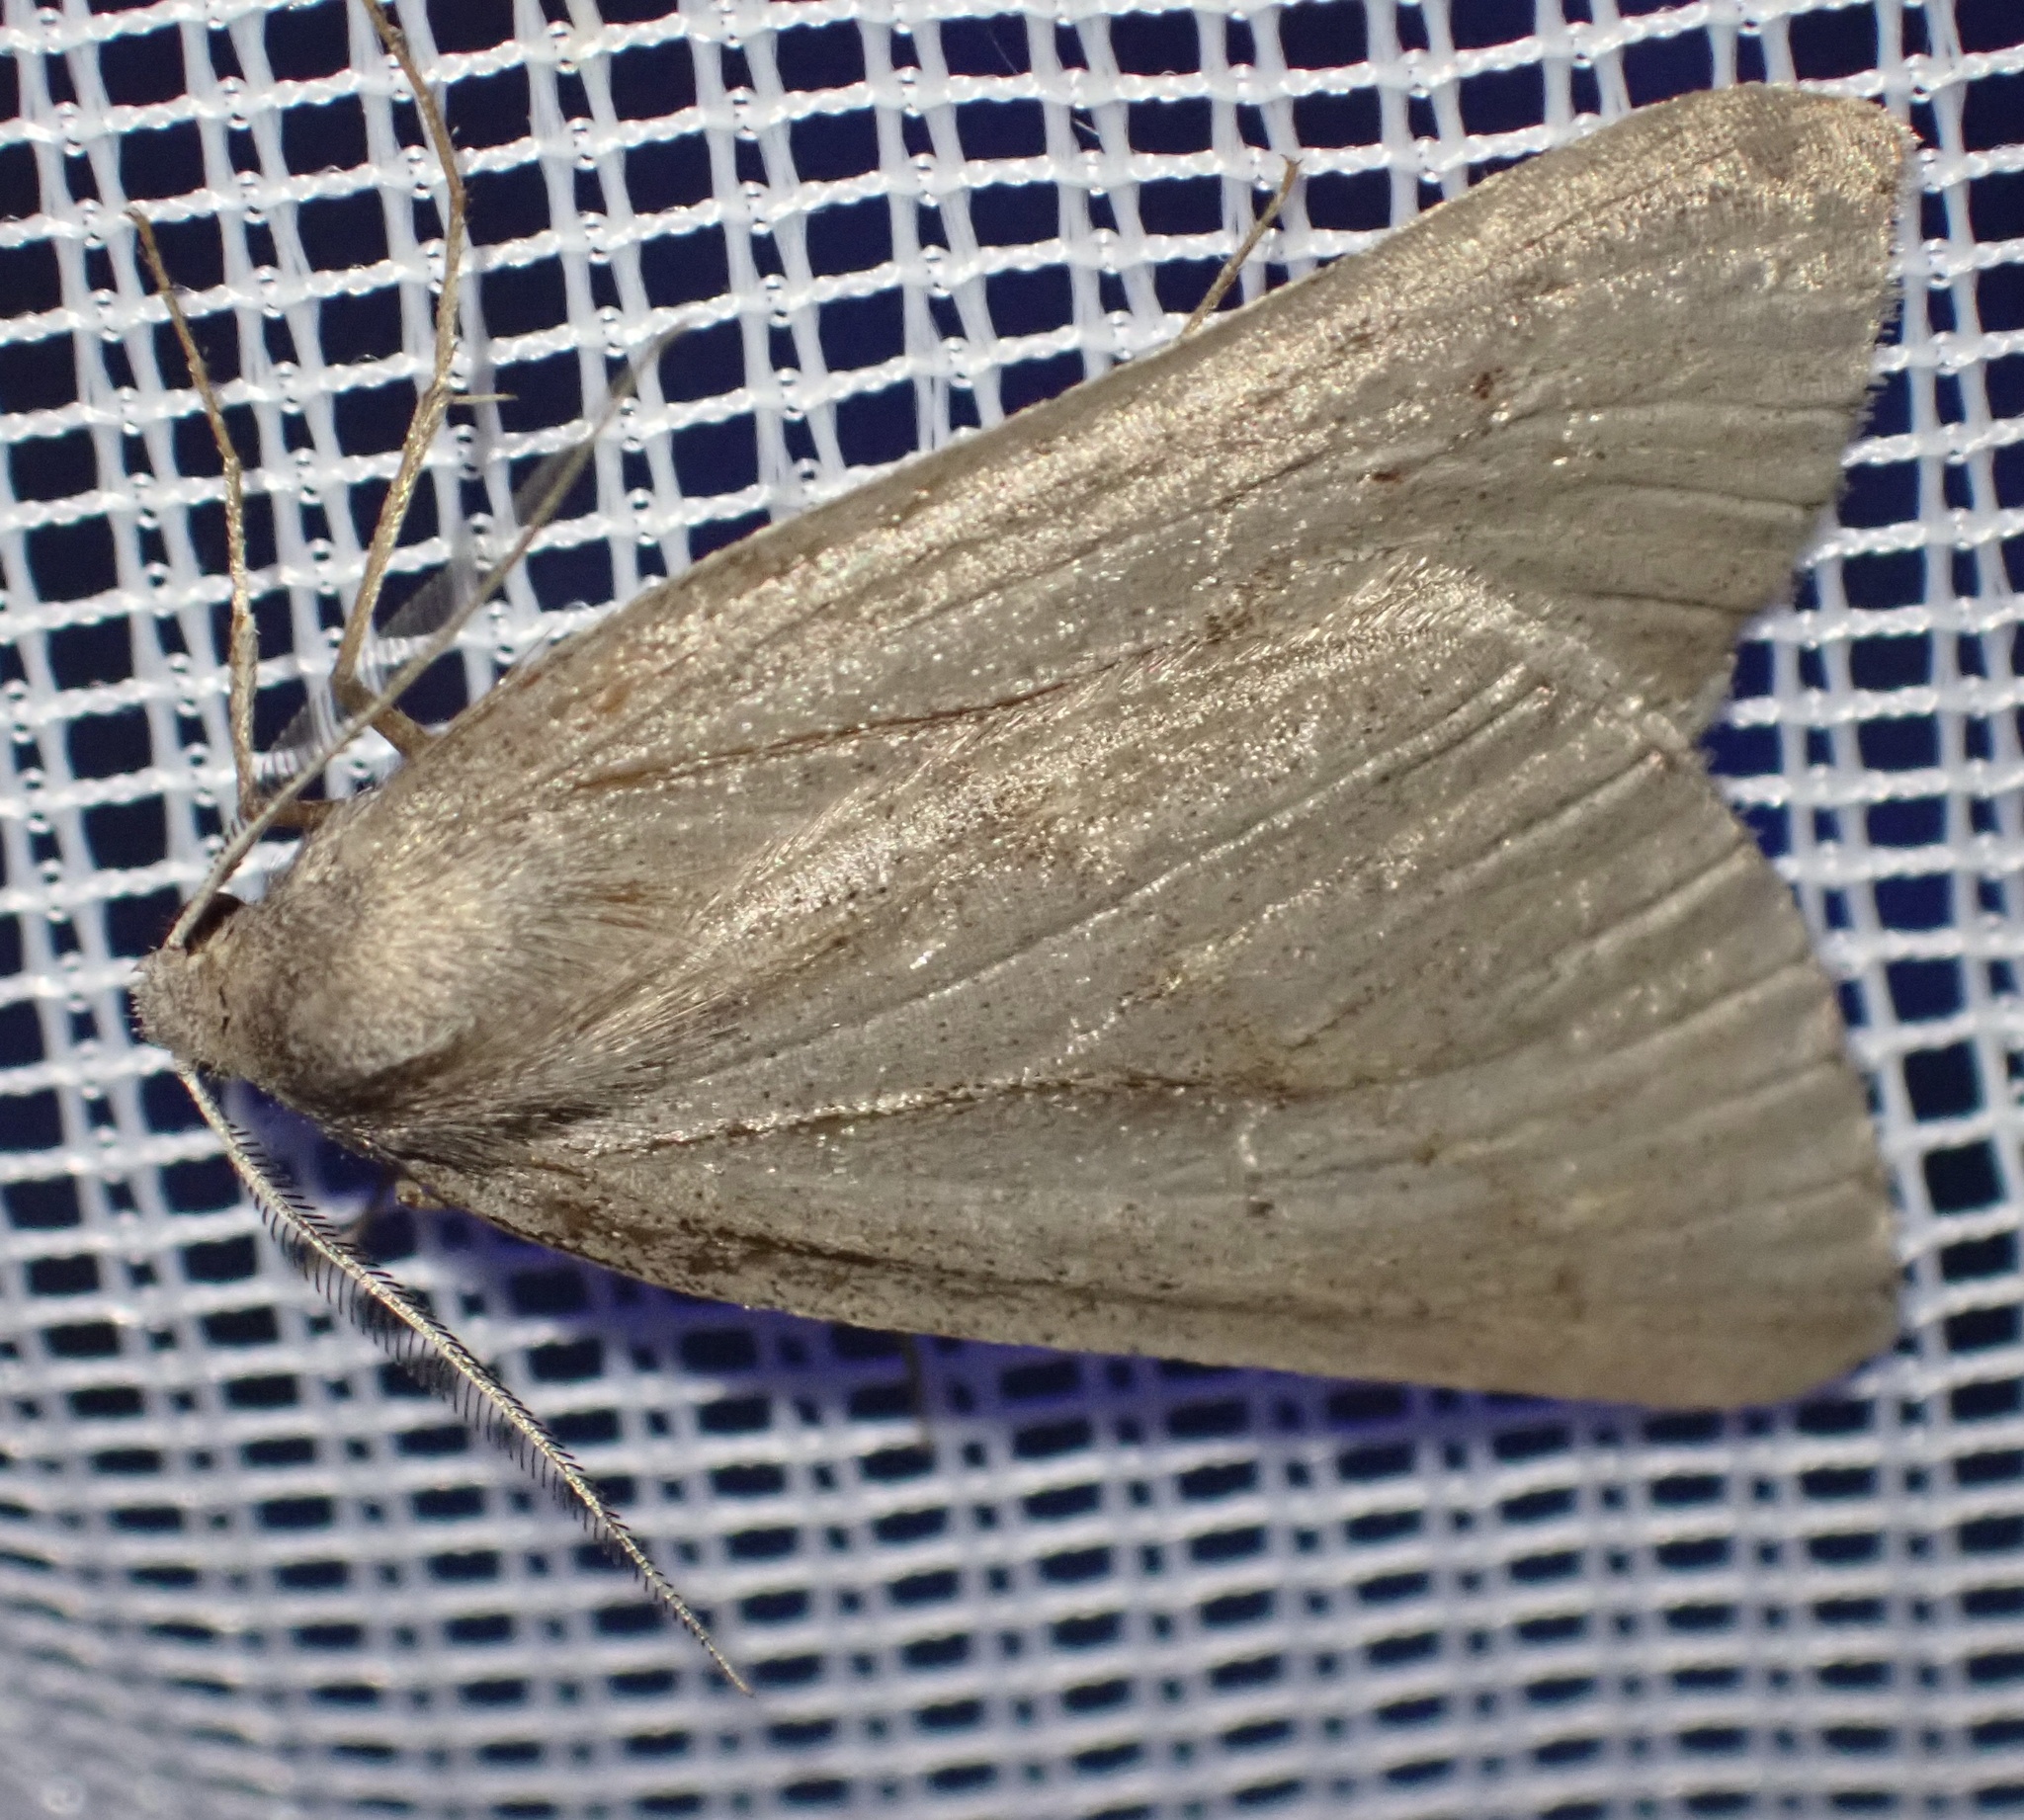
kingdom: Animalia
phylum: Arthropoda
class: Insecta
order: Lepidoptera
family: Geometridae
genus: Chemerina
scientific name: Chemerina caliginearia
